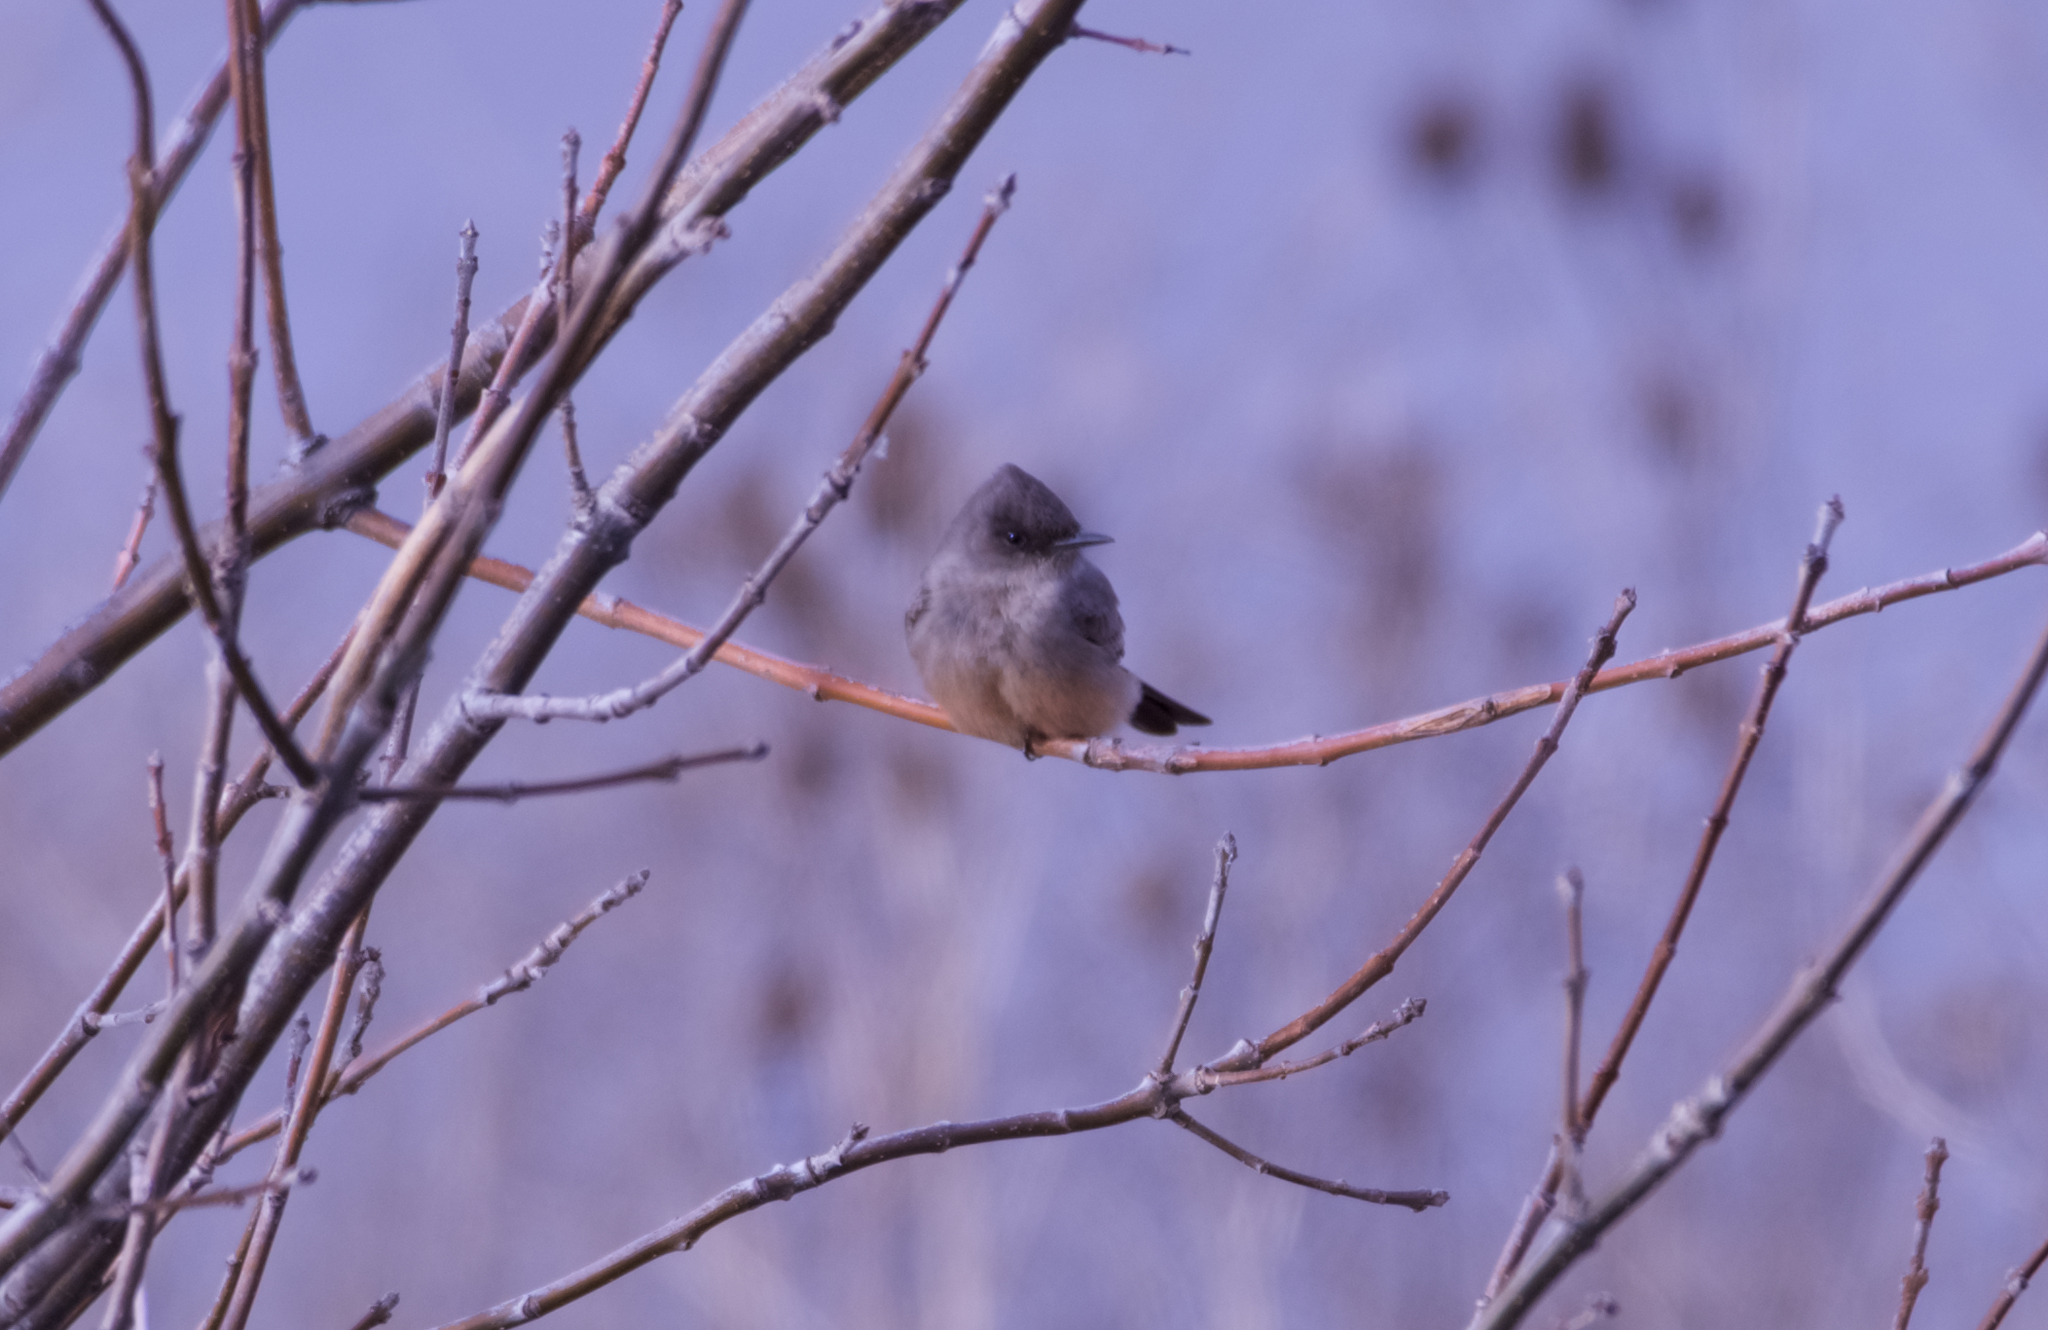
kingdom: Animalia
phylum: Chordata
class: Aves
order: Passeriformes
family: Tyrannidae
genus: Sayornis
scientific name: Sayornis saya
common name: Say's phoebe
